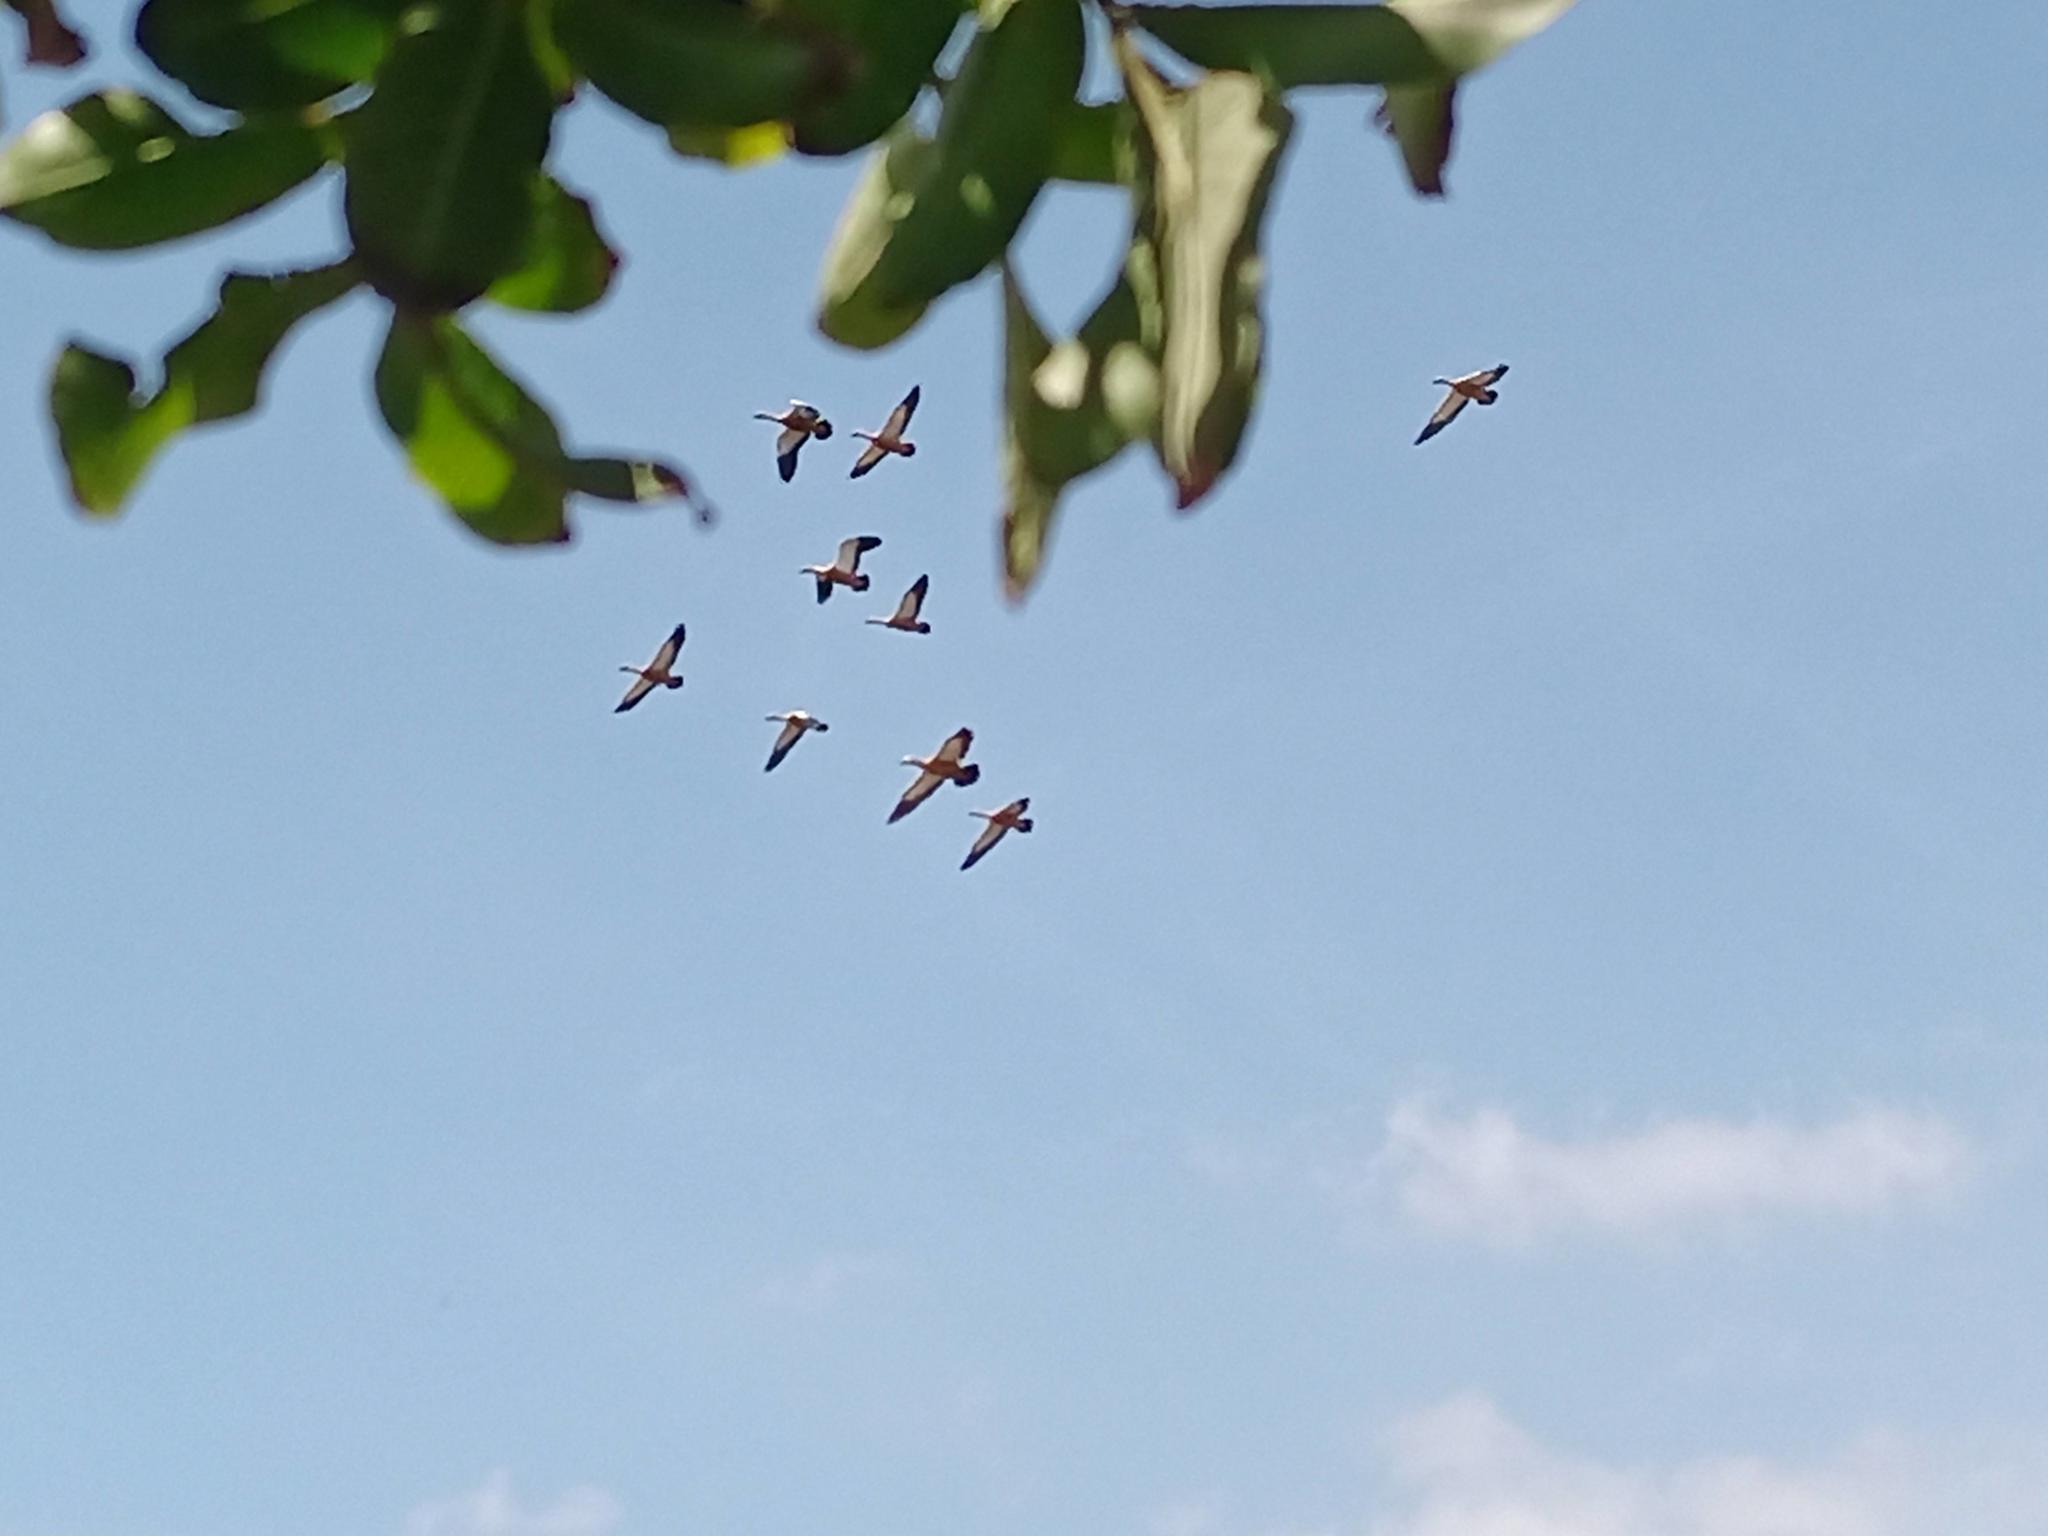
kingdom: Animalia
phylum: Chordata
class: Aves
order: Anseriformes
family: Anatidae
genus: Tadorna
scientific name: Tadorna ferruginea
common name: Ruddy shelduck
